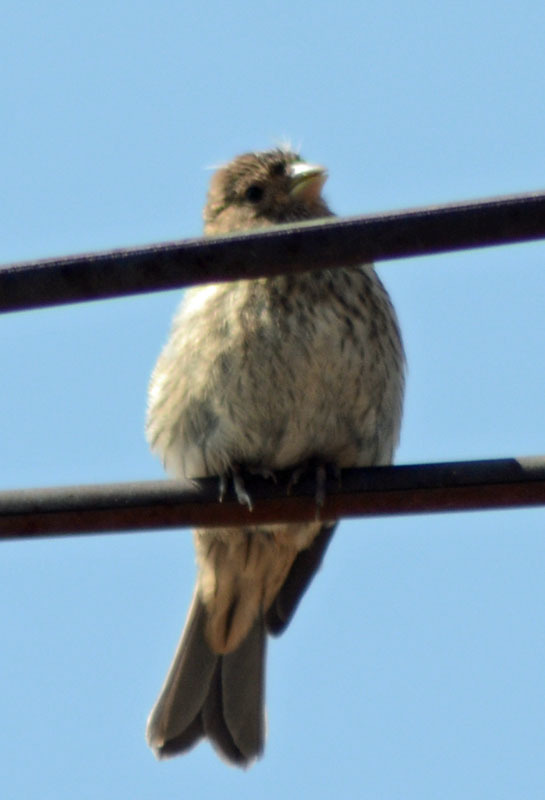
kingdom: Animalia
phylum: Chordata
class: Aves
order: Passeriformes
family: Fringillidae
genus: Haemorhous
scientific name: Haemorhous mexicanus
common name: House finch
